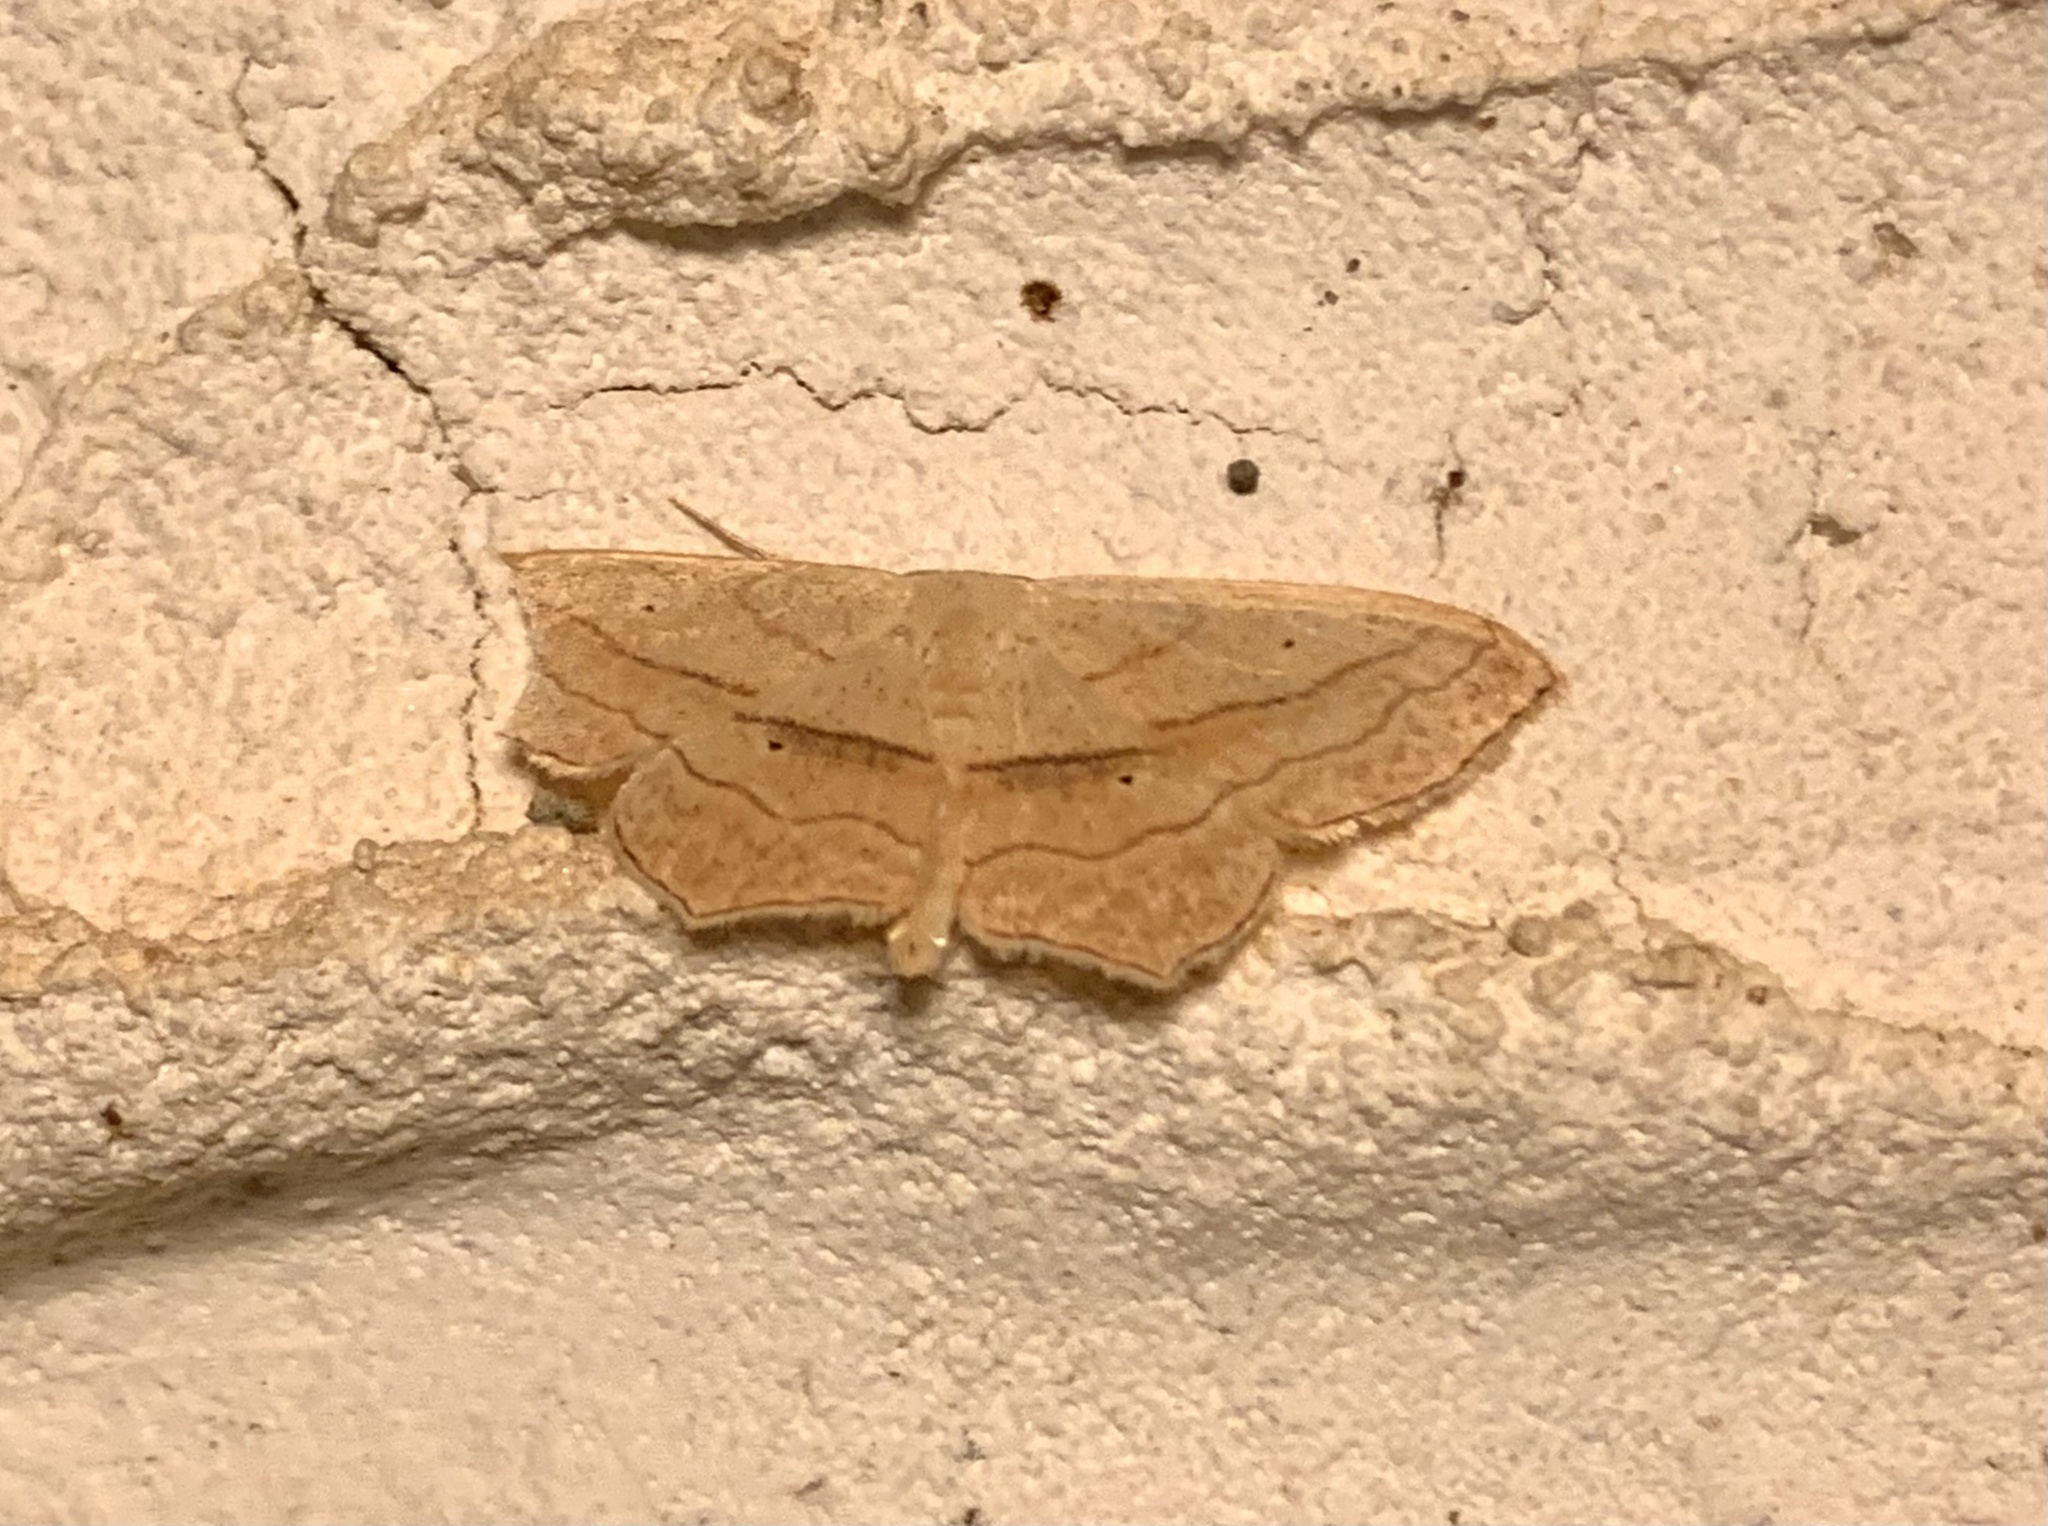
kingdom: Animalia
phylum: Arthropoda
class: Insecta
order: Lepidoptera
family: Geometridae
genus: Scopula
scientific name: Scopula imitaria
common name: Small blood-vein
